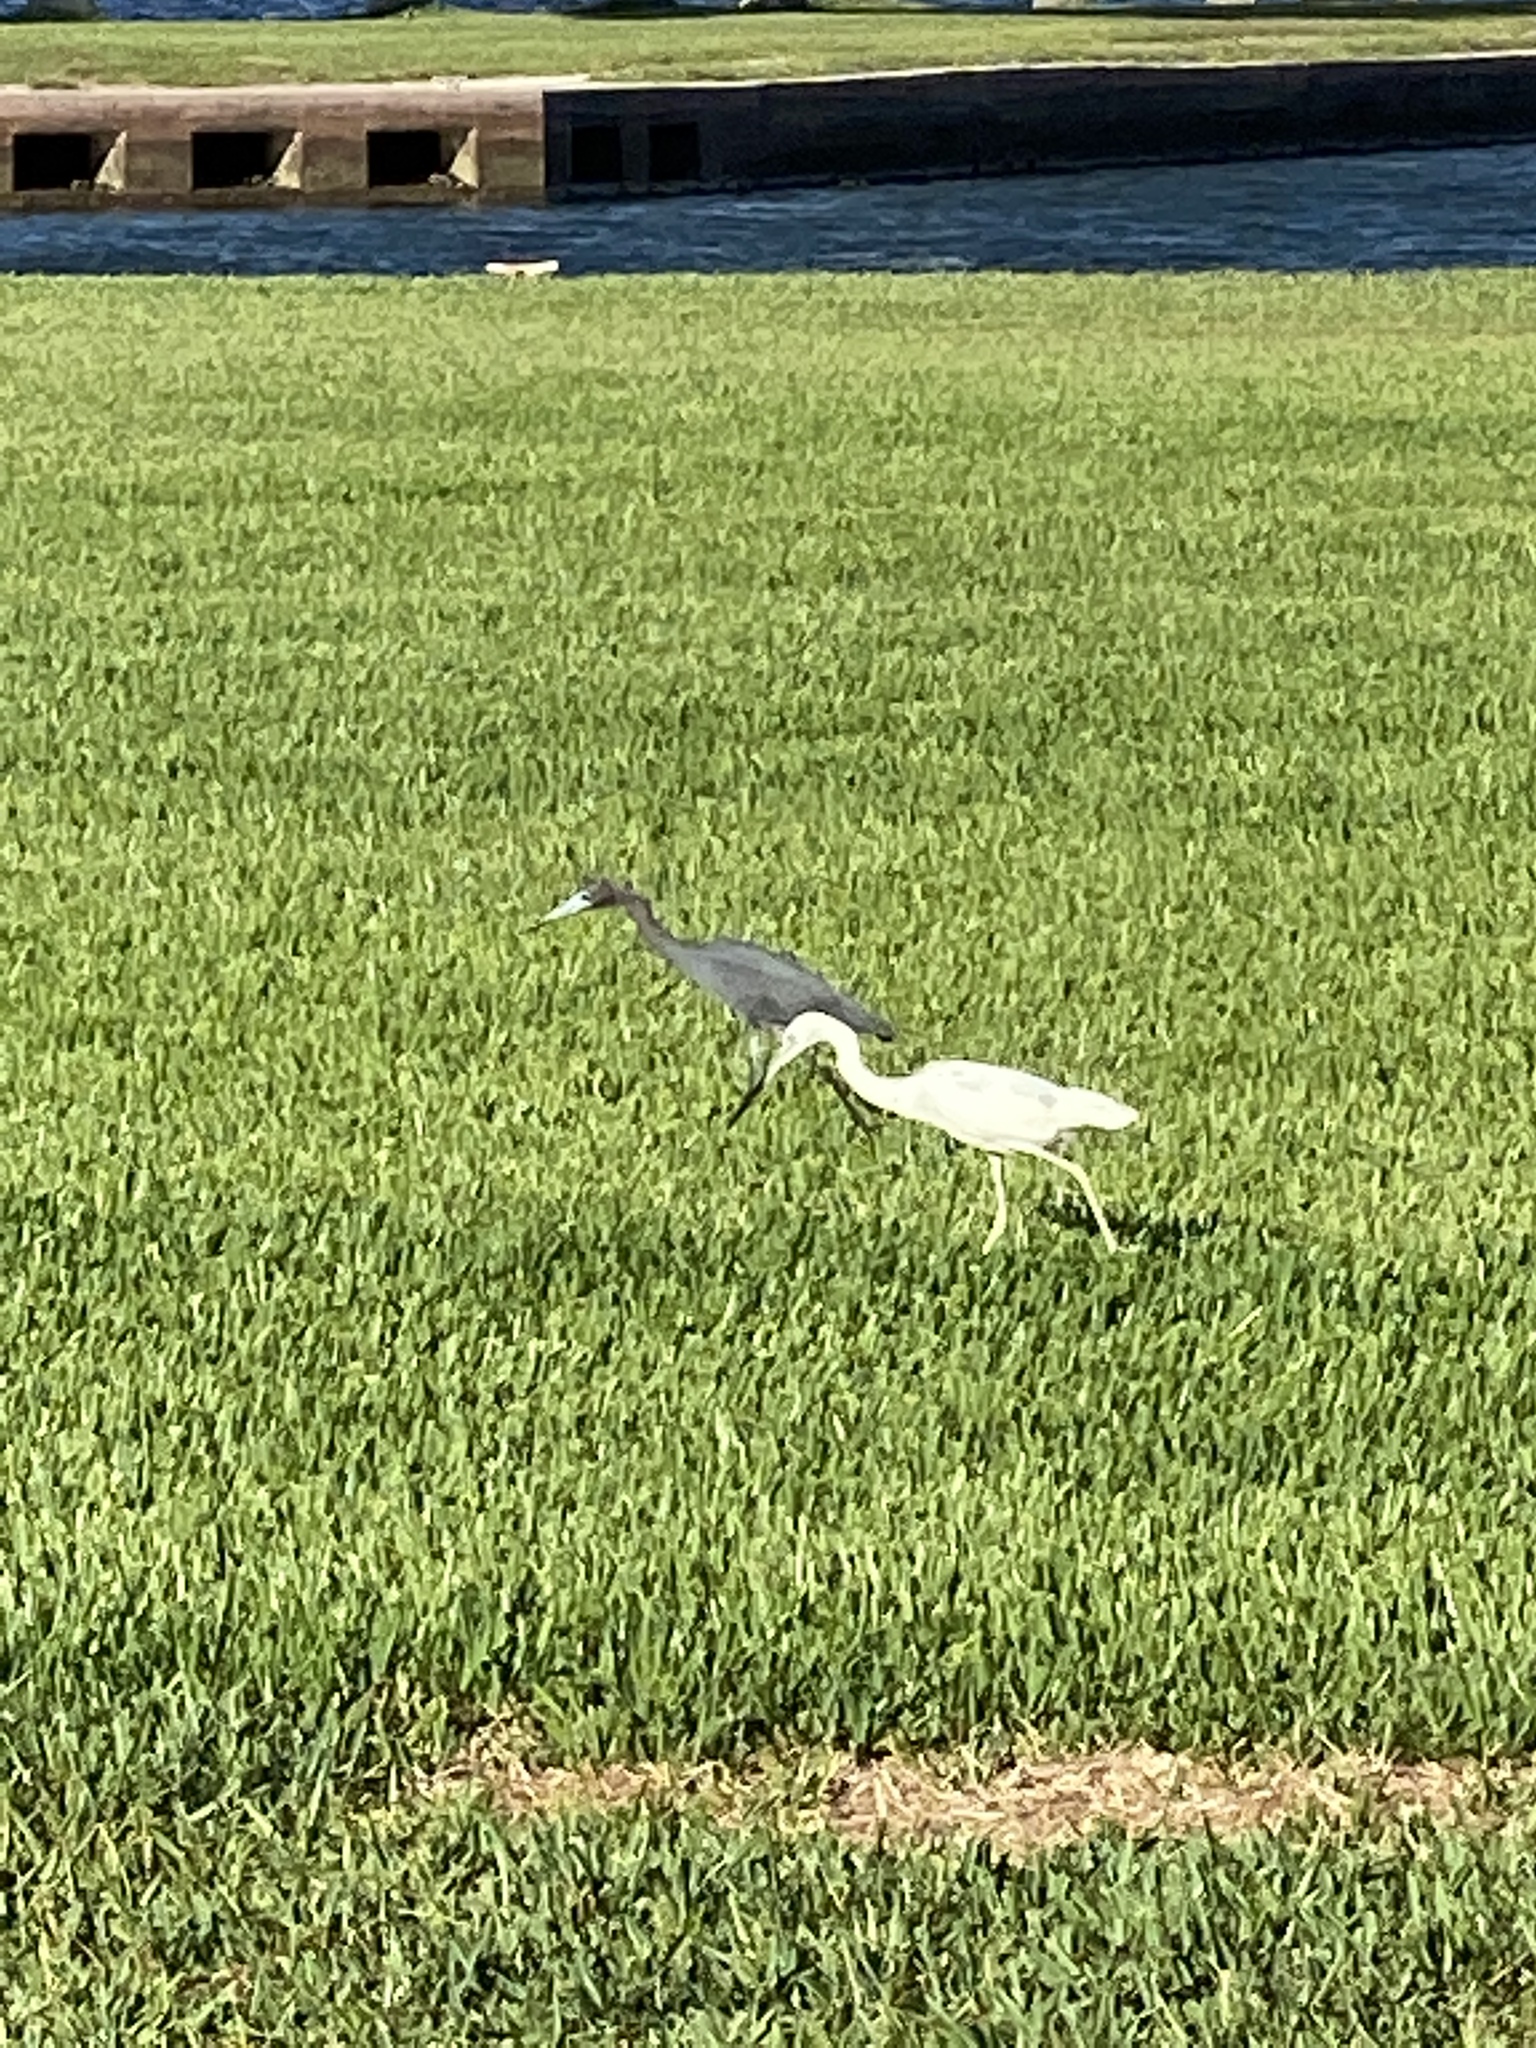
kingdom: Animalia
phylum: Chordata
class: Aves
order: Pelecaniformes
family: Ardeidae
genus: Egretta
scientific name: Egretta caerulea
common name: Little blue heron
